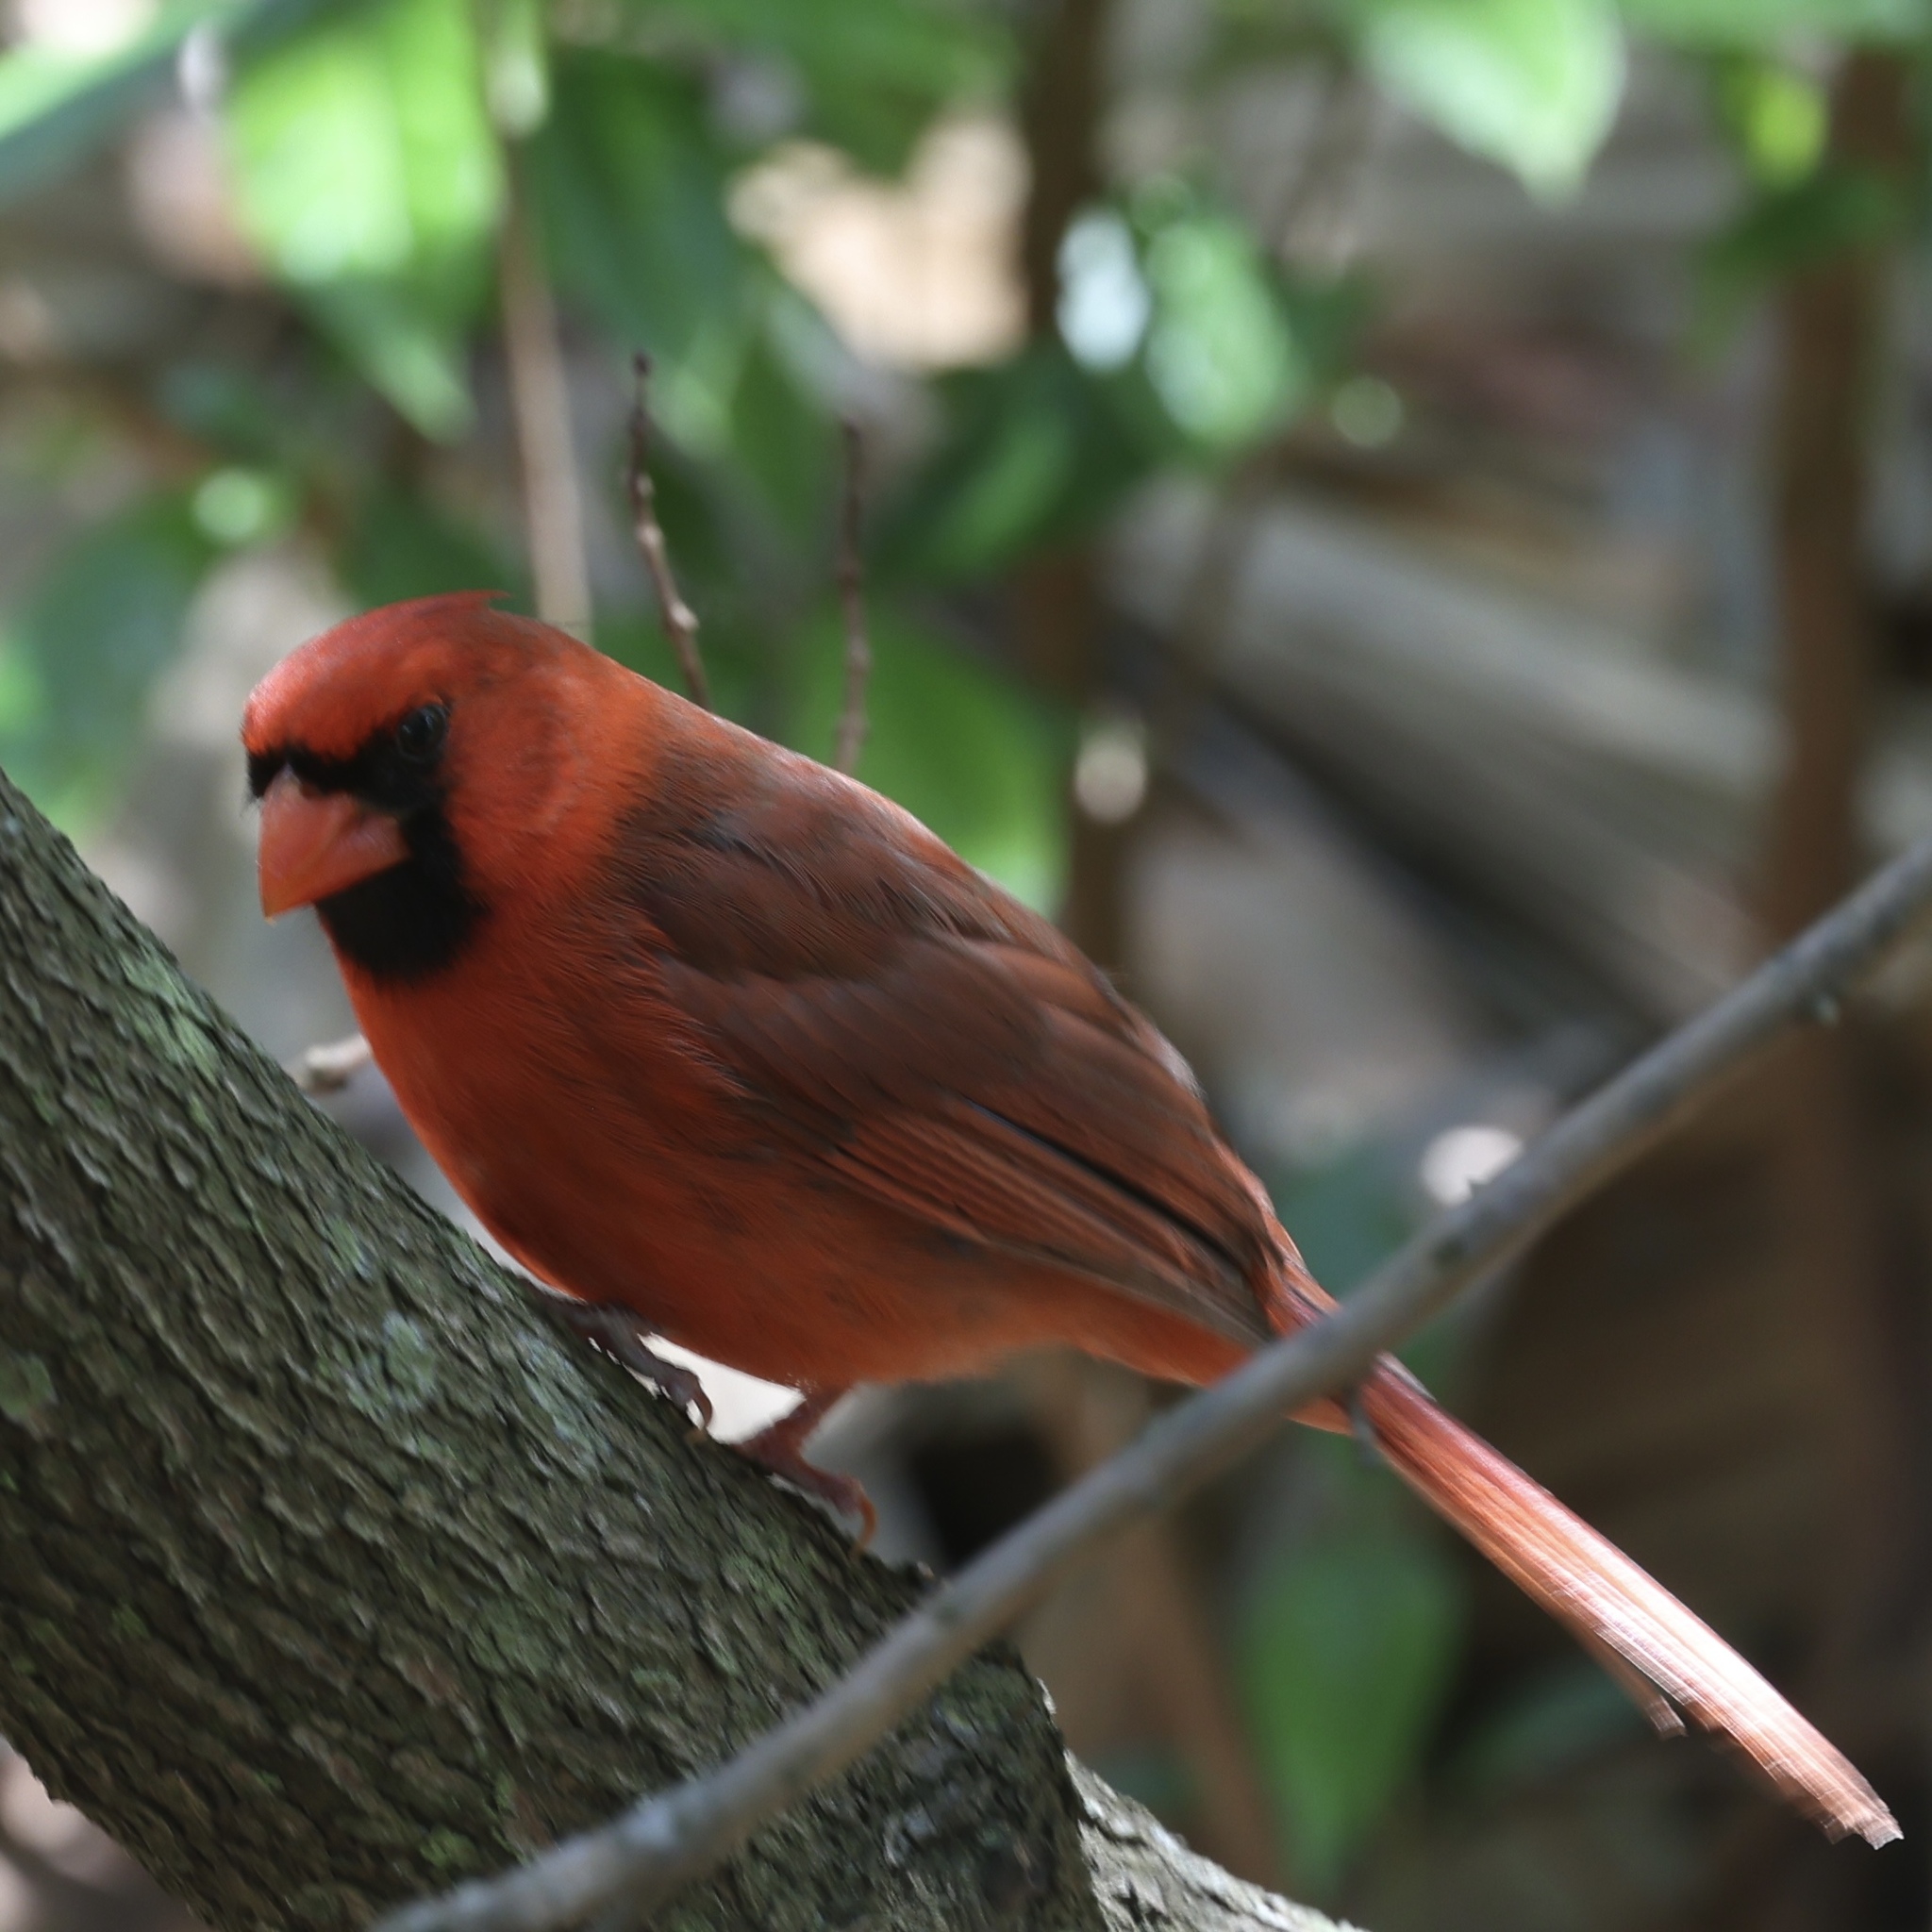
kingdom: Animalia
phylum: Chordata
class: Aves
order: Passeriformes
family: Cardinalidae
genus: Cardinalis
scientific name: Cardinalis cardinalis
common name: Northern cardinal
